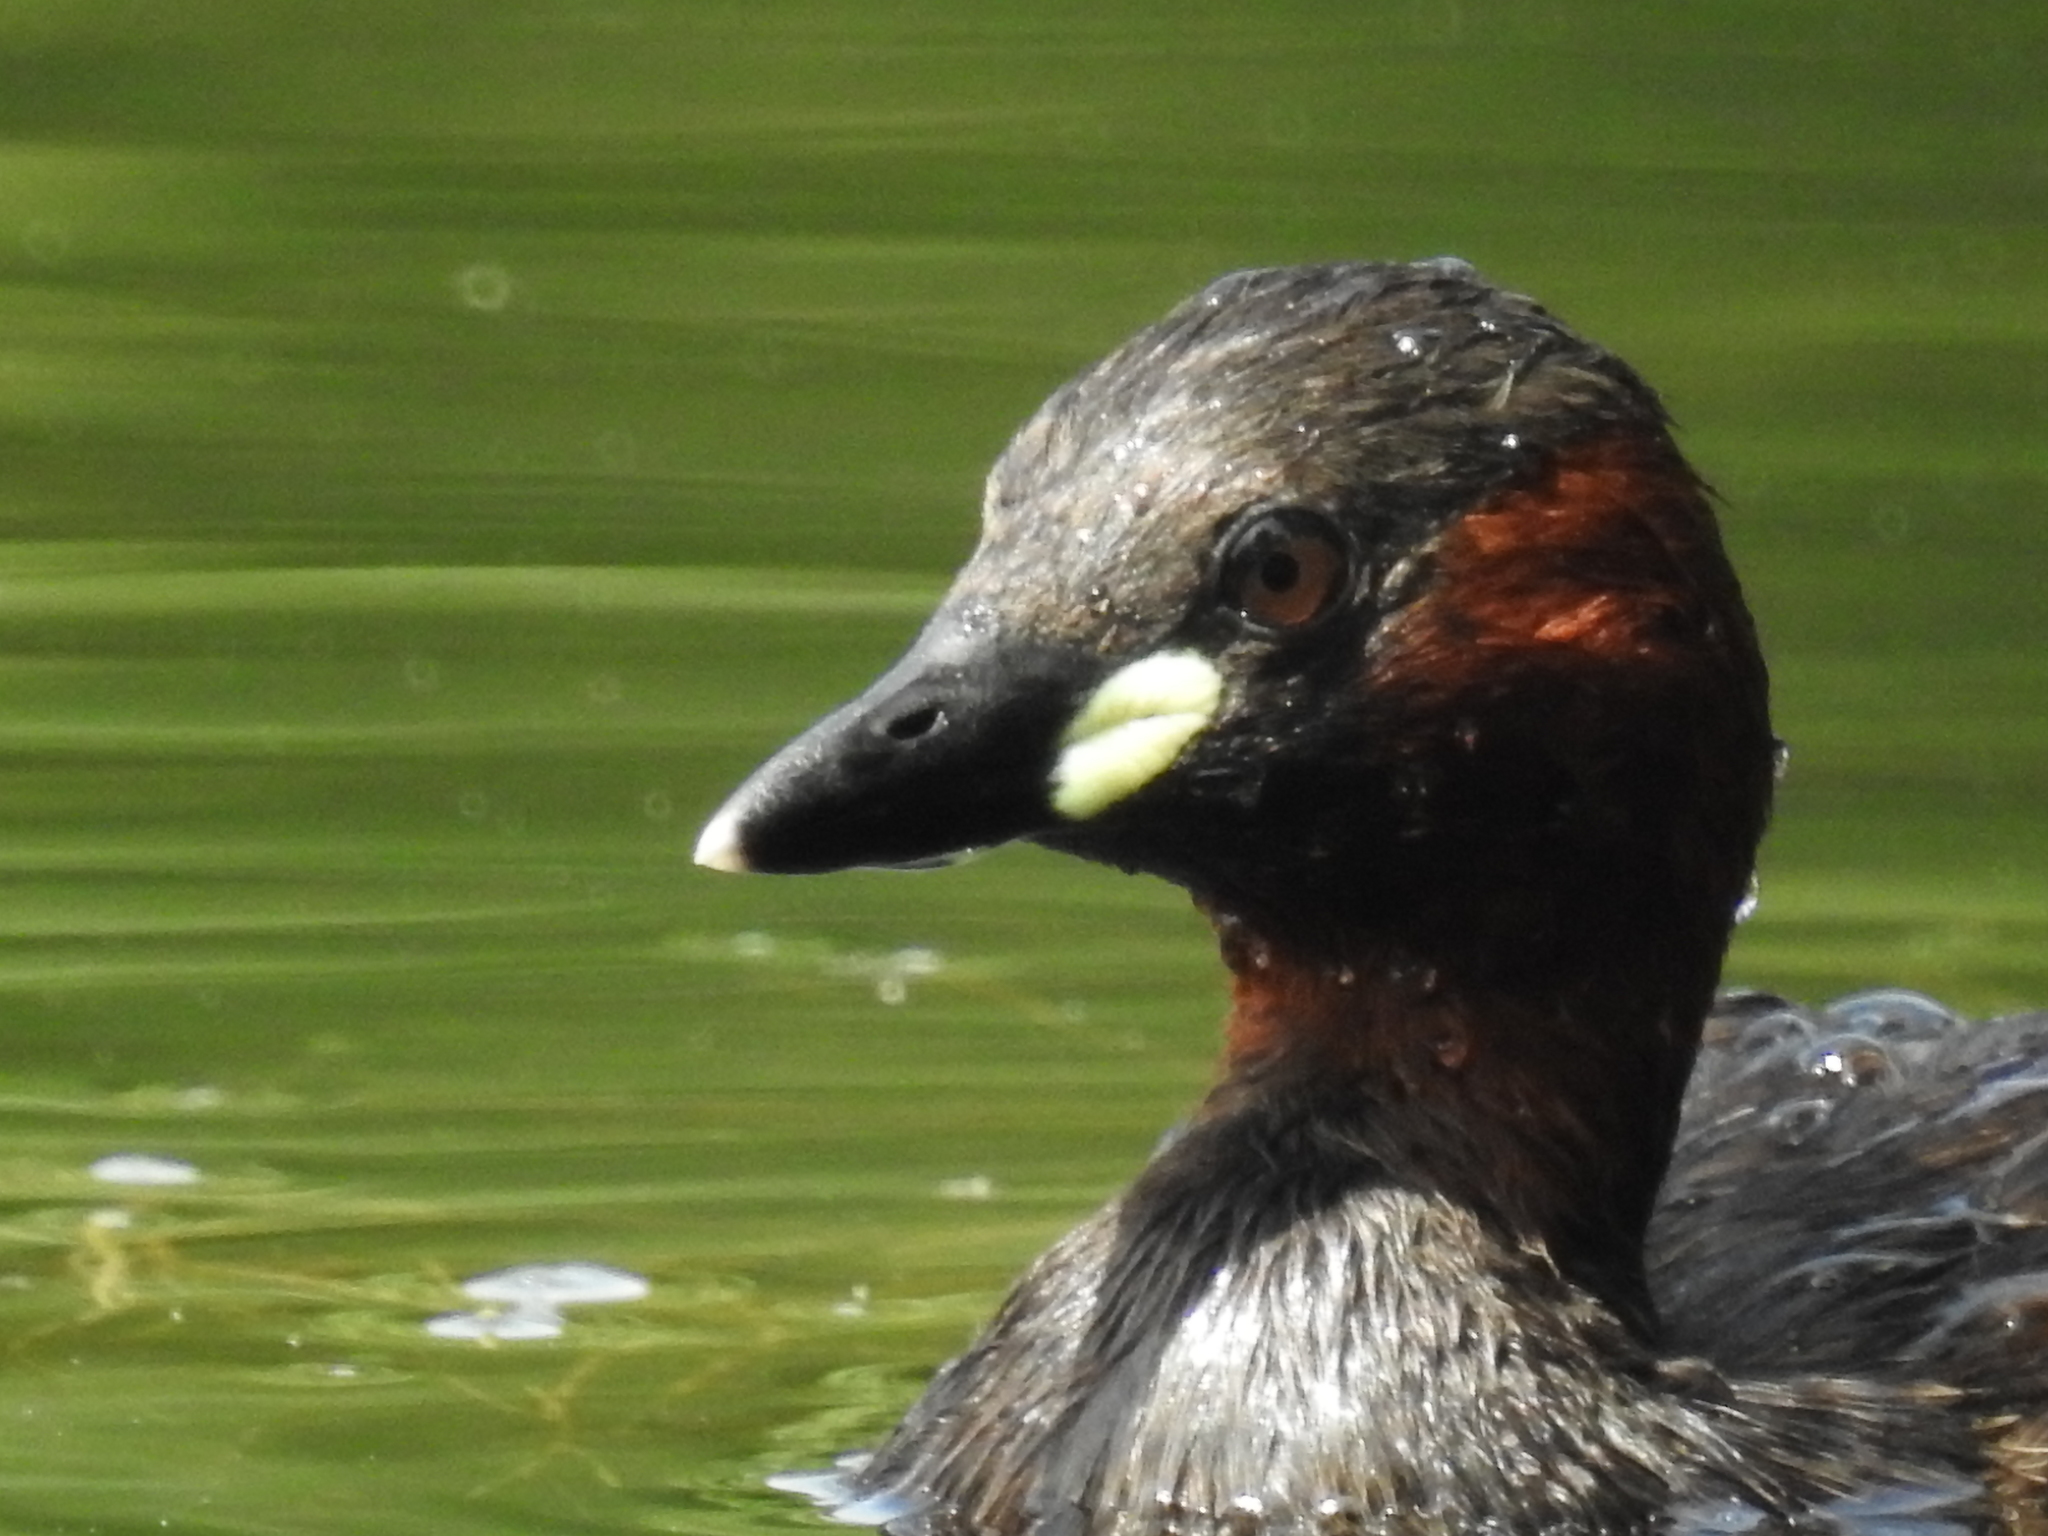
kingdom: Animalia
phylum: Chordata
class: Aves
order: Podicipediformes
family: Podicipedidae
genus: Tachybaptus
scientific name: Tachybaptus ruficollis
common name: Little grebe
